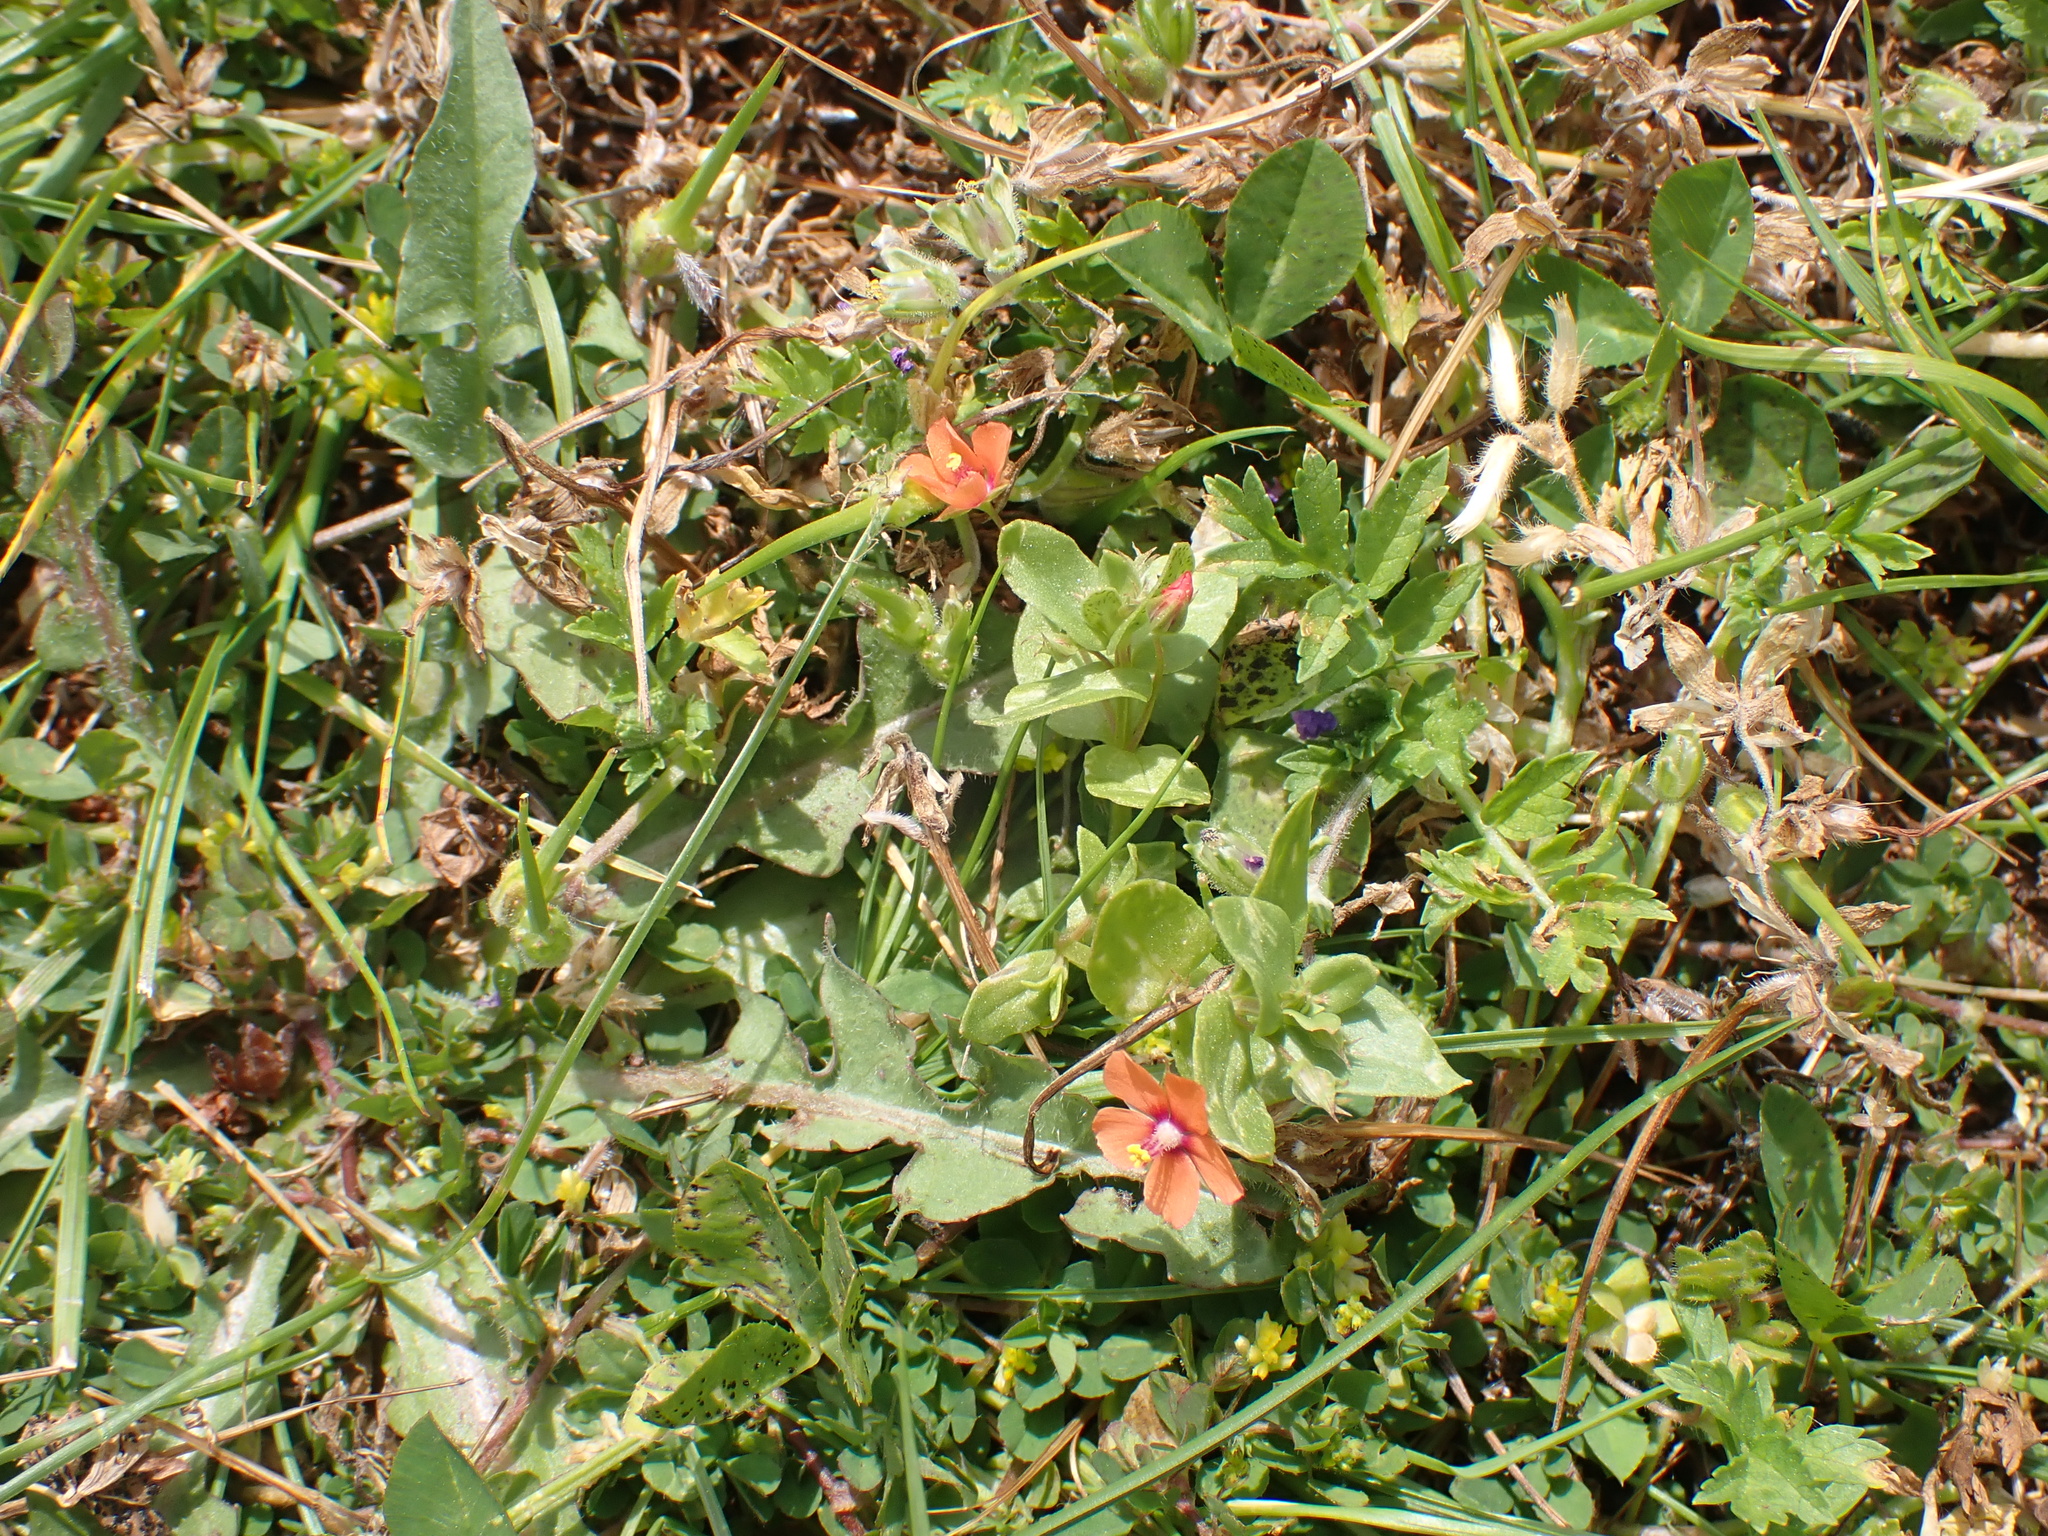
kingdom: Plantae
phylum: Tracheophyta
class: Magnoliopsida
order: Ericales
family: Primulaceae
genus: Lysimachia
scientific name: Lysimachia arvensis
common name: Scarlet pimpernel
